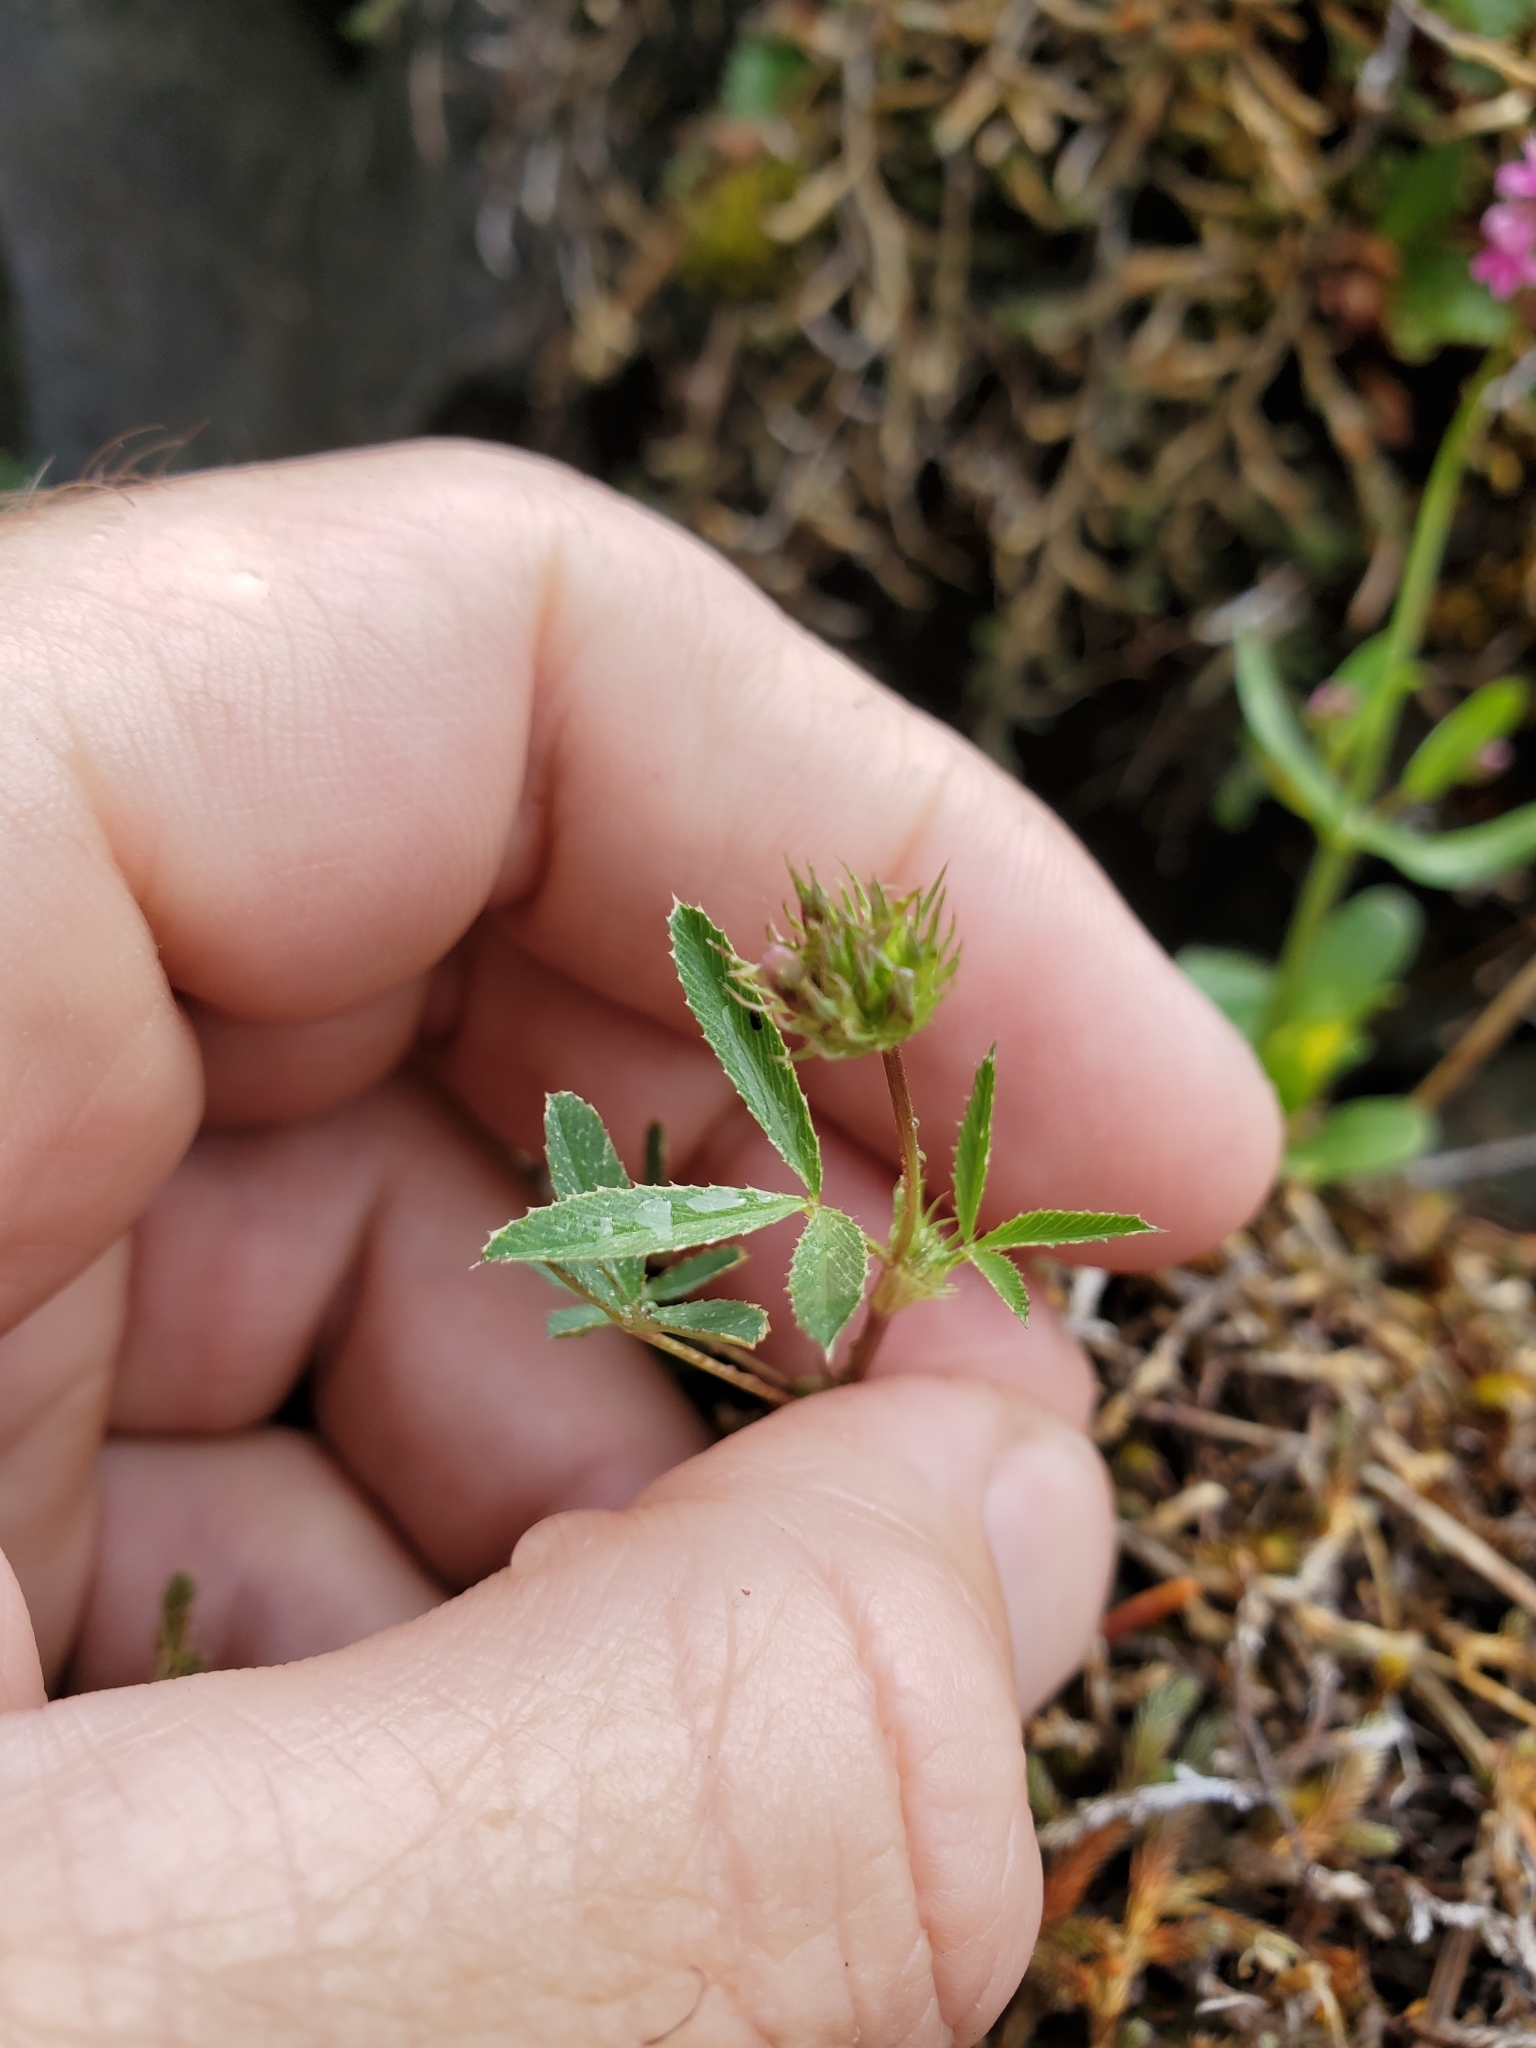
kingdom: Plantae
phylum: Tracheophyta
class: Magnoliopsida
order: Fabales
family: Fabaceae
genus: Trifolium
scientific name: Trifolium willdenovii
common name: Tomcat clover
